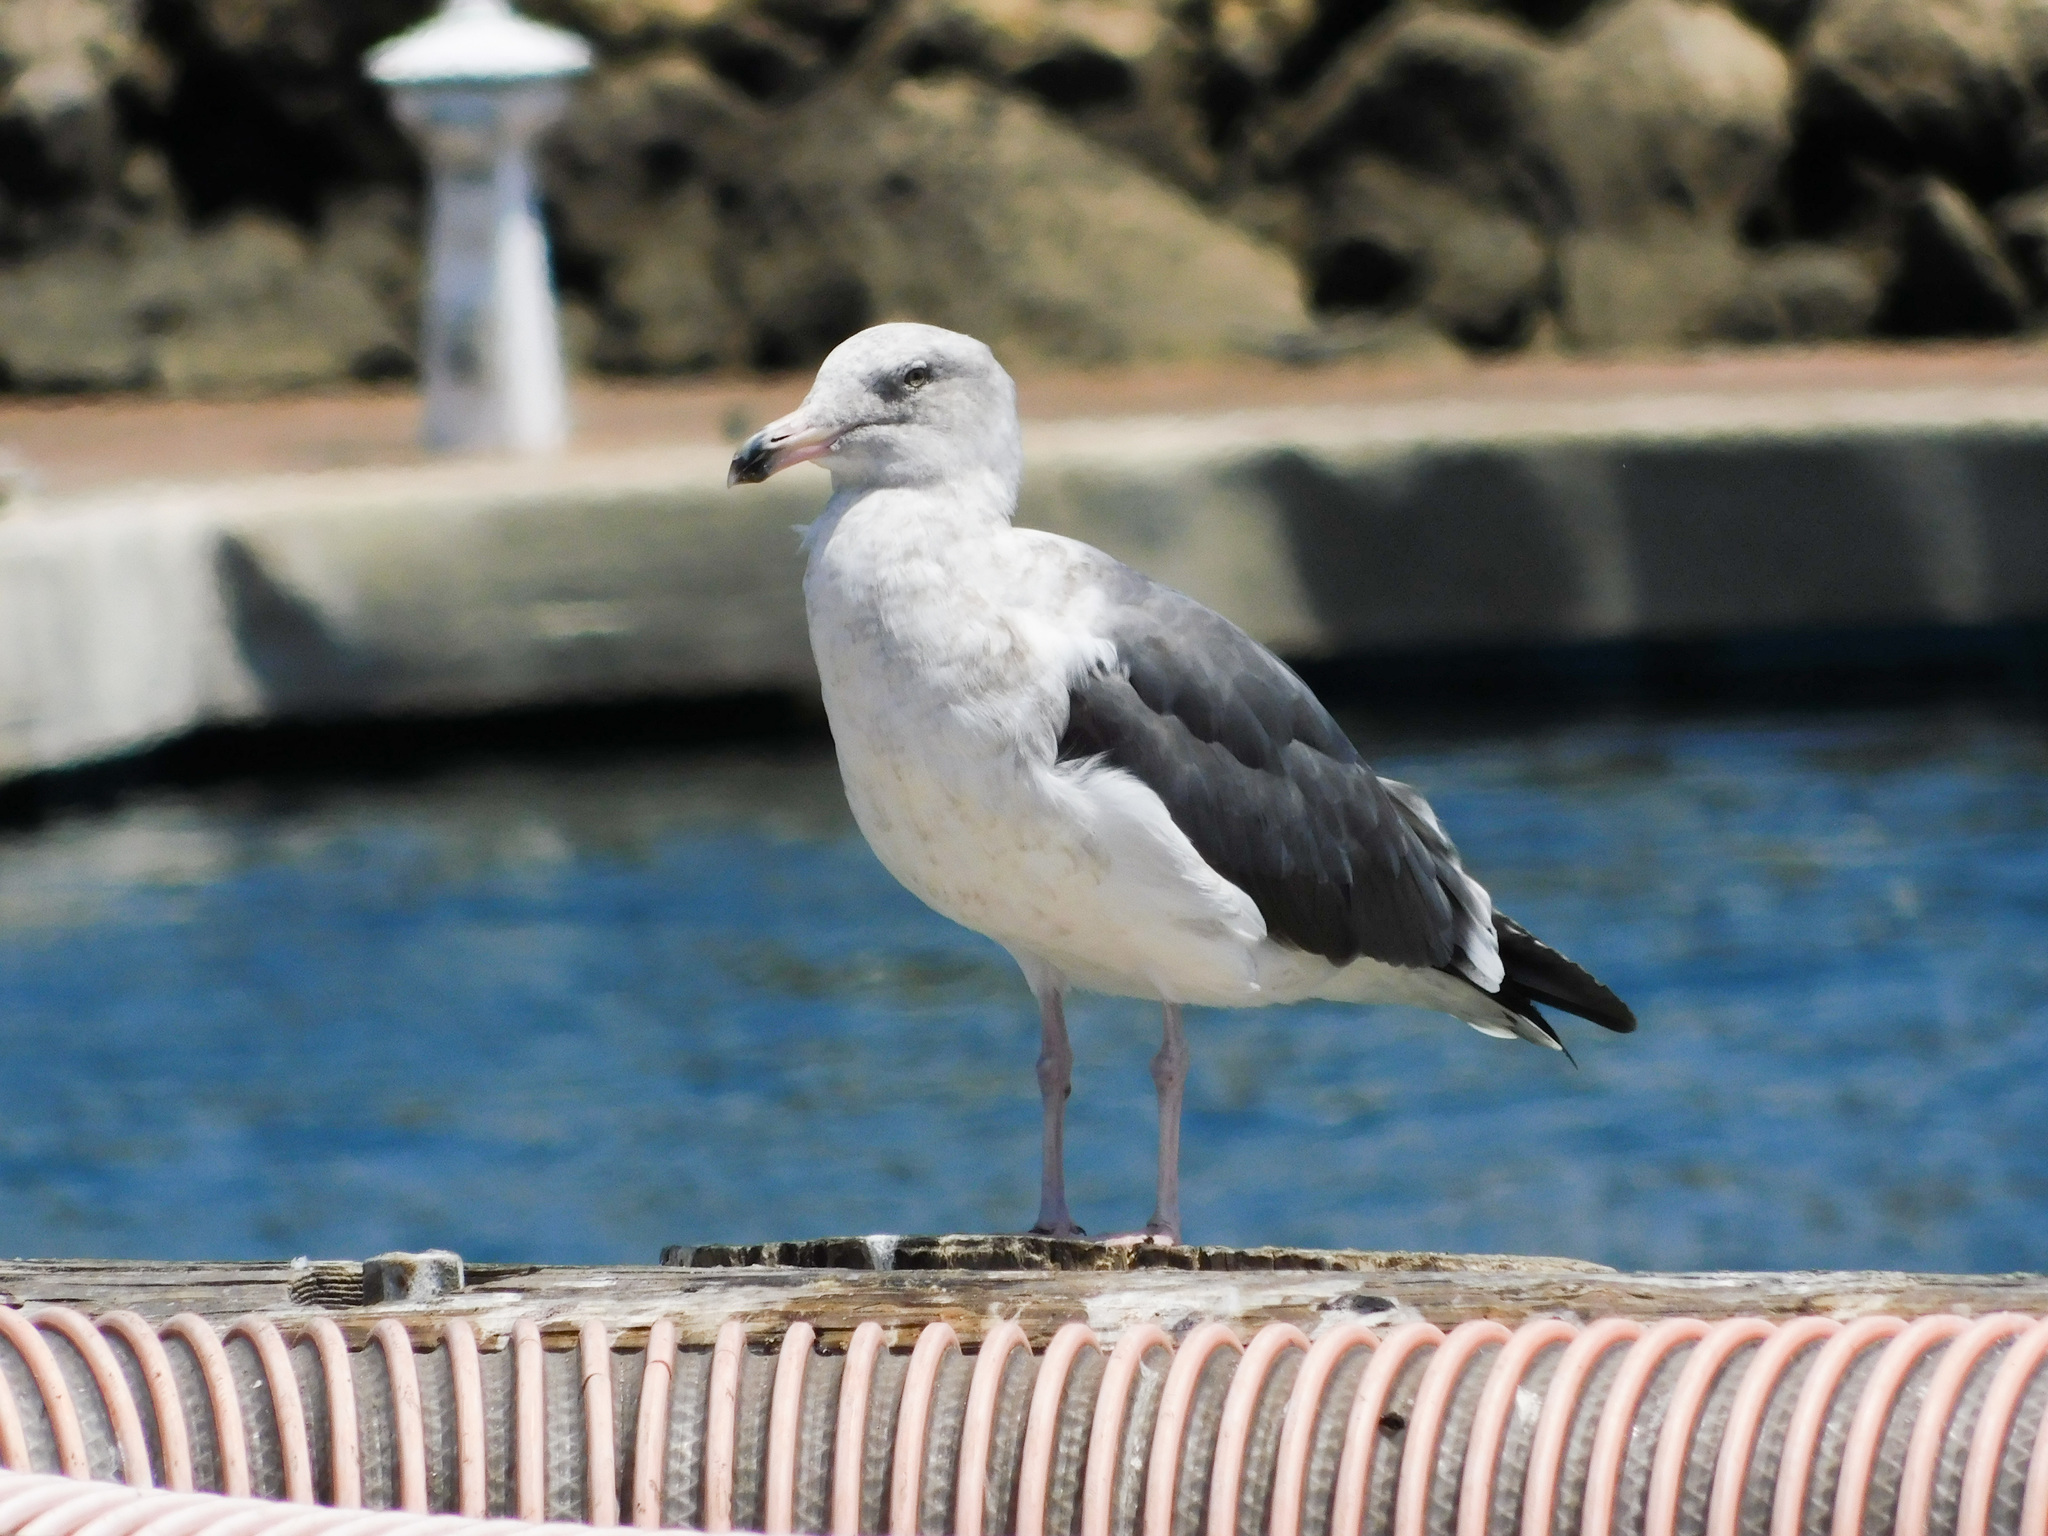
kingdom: Animalia
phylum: Chordata
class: Aves
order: Charadriiformes
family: Laridae
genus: Larus
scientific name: Larus occidentalis
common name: Western gull
